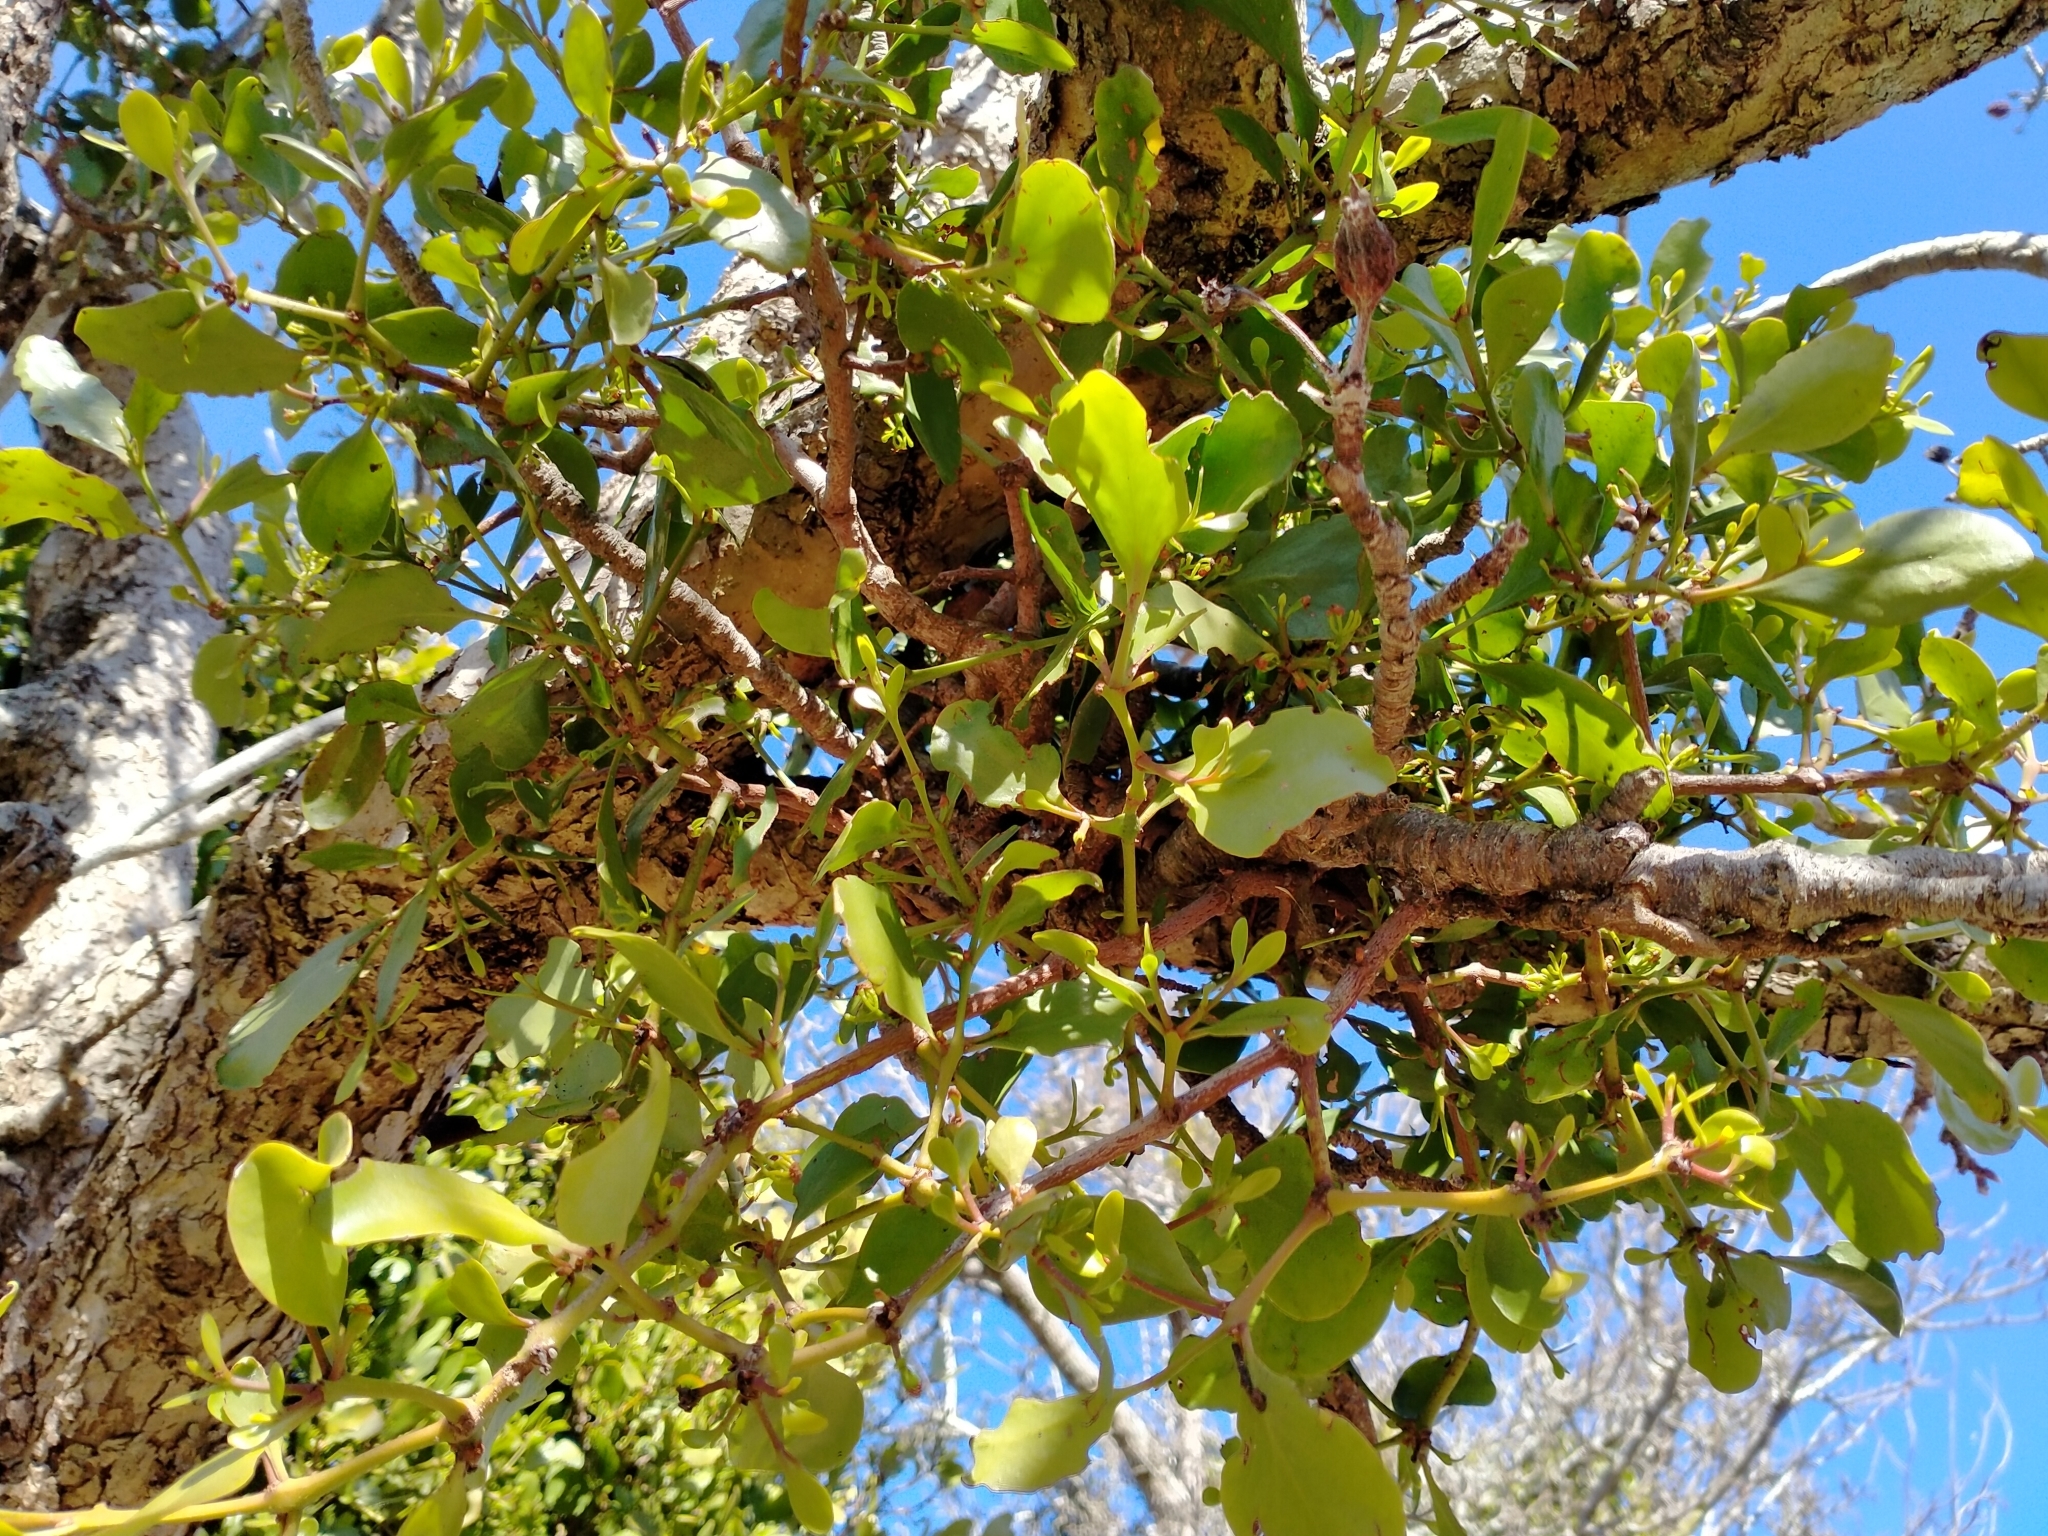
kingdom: Plantae
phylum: Tracheophyta
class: Magnoliopsida
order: Santalales
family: Loranthaceae
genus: Ileostylus
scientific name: Ileostylus micranthus
